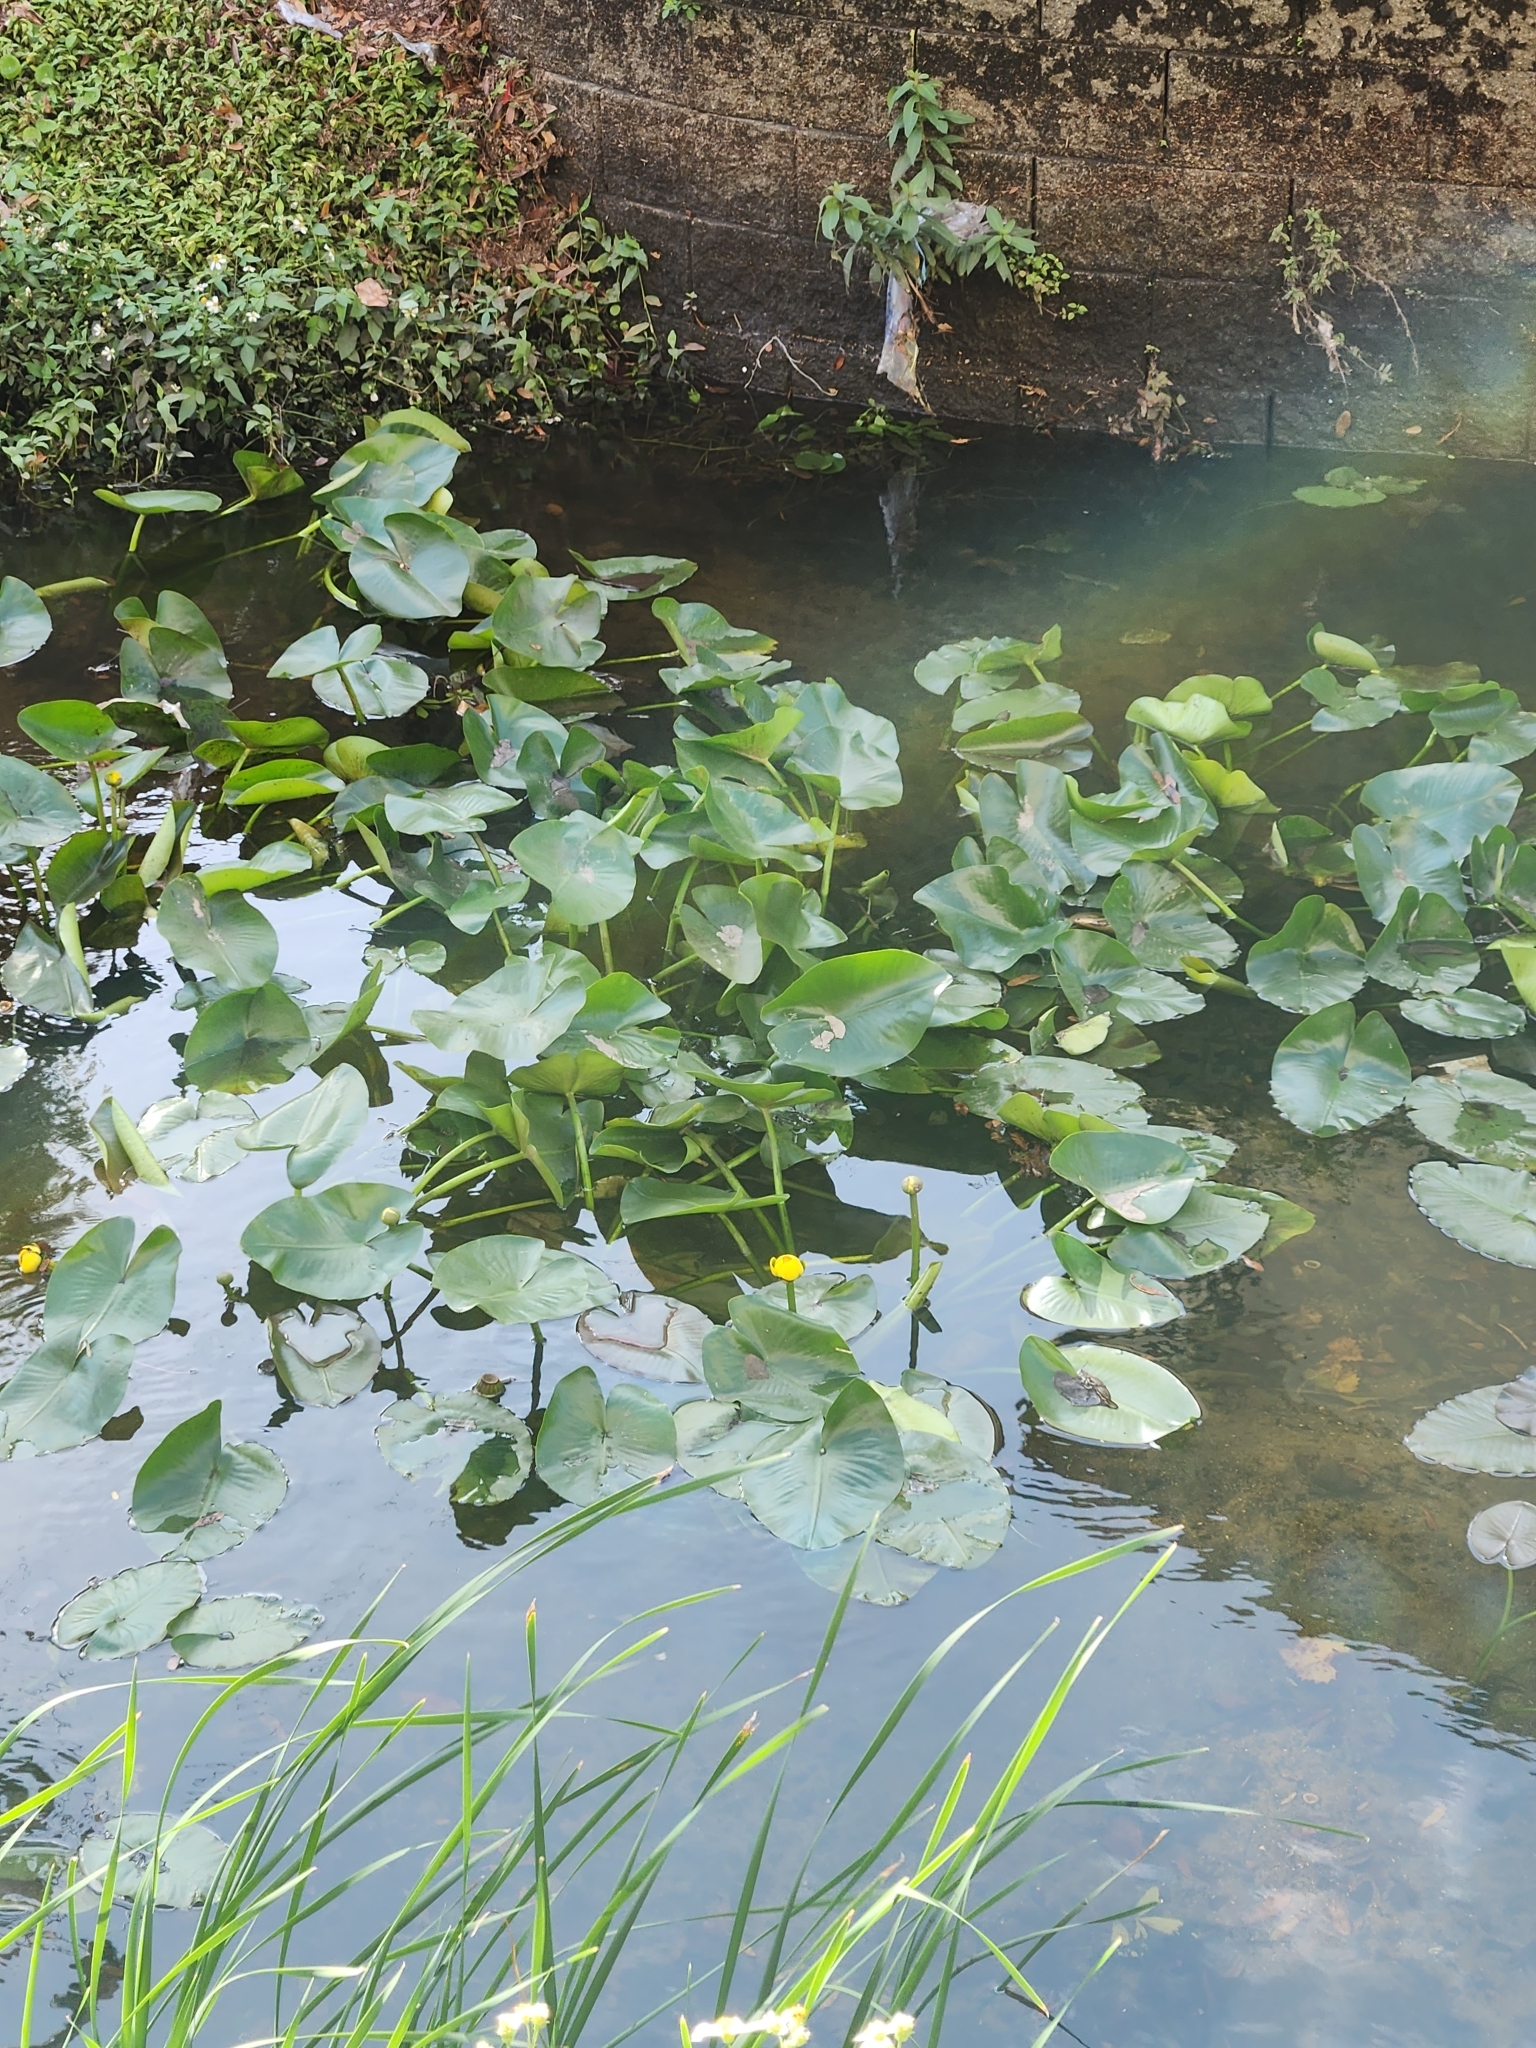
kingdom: Plantae
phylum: Tracheophyta
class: Magnoliopsida
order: Nymphaeales
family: Nymphaeaceae
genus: Nuphar
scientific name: Nuphar advena
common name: Spatter-dock
